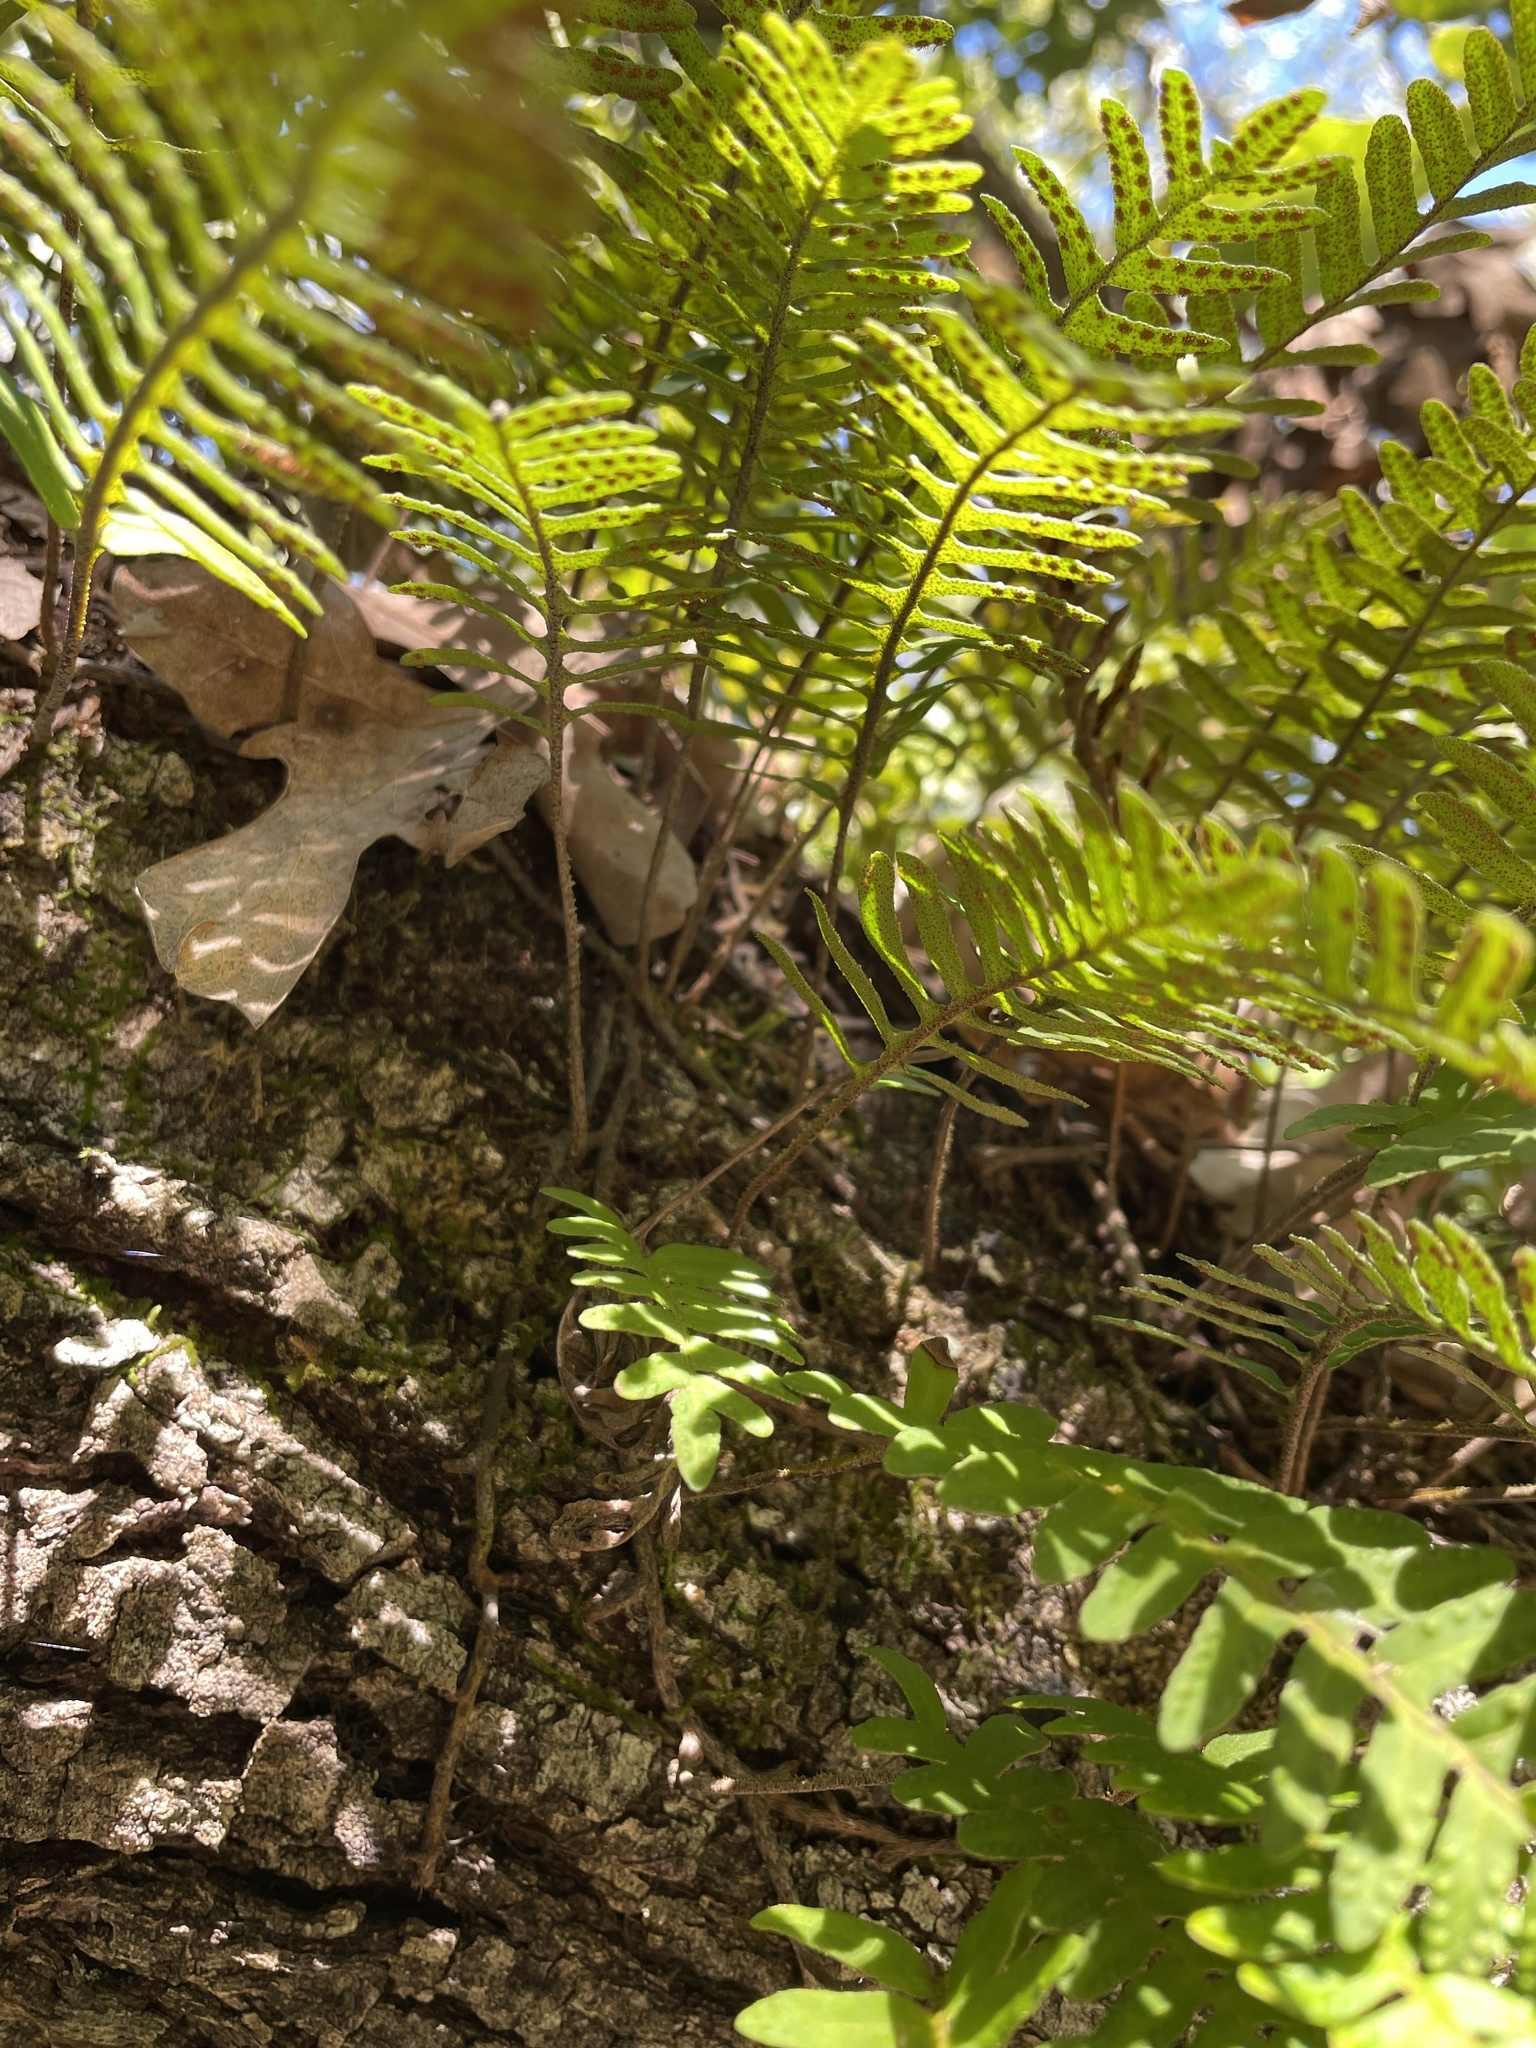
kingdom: Plantae
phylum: Tracheophyta
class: Polypodiopsida
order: Polypodiales
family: Polypodiaceae
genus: Pleopeltis
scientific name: Pleopeltis michauxiana
